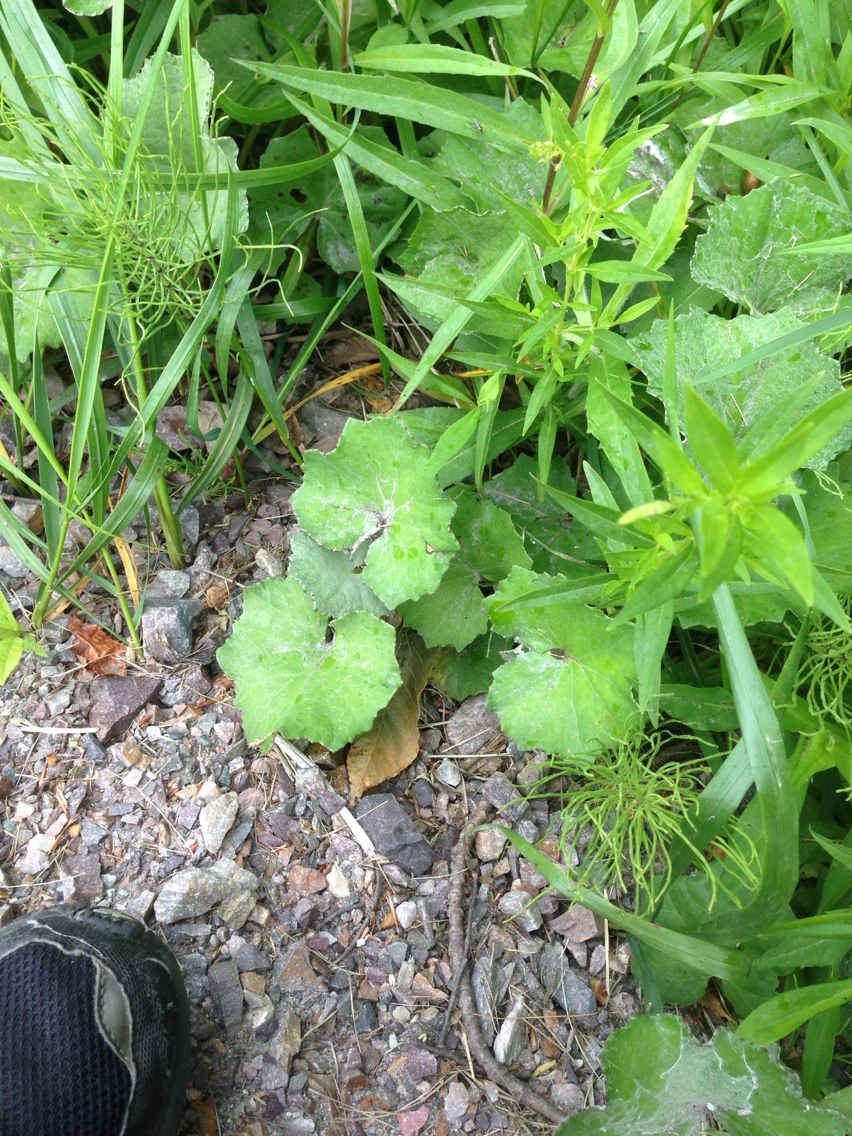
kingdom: Plantae
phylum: Tracheophyta
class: Magnoliopsida
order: Asterales
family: Asteraceae
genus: Tussilago
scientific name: Tussilago farfara
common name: Coltsfoot
